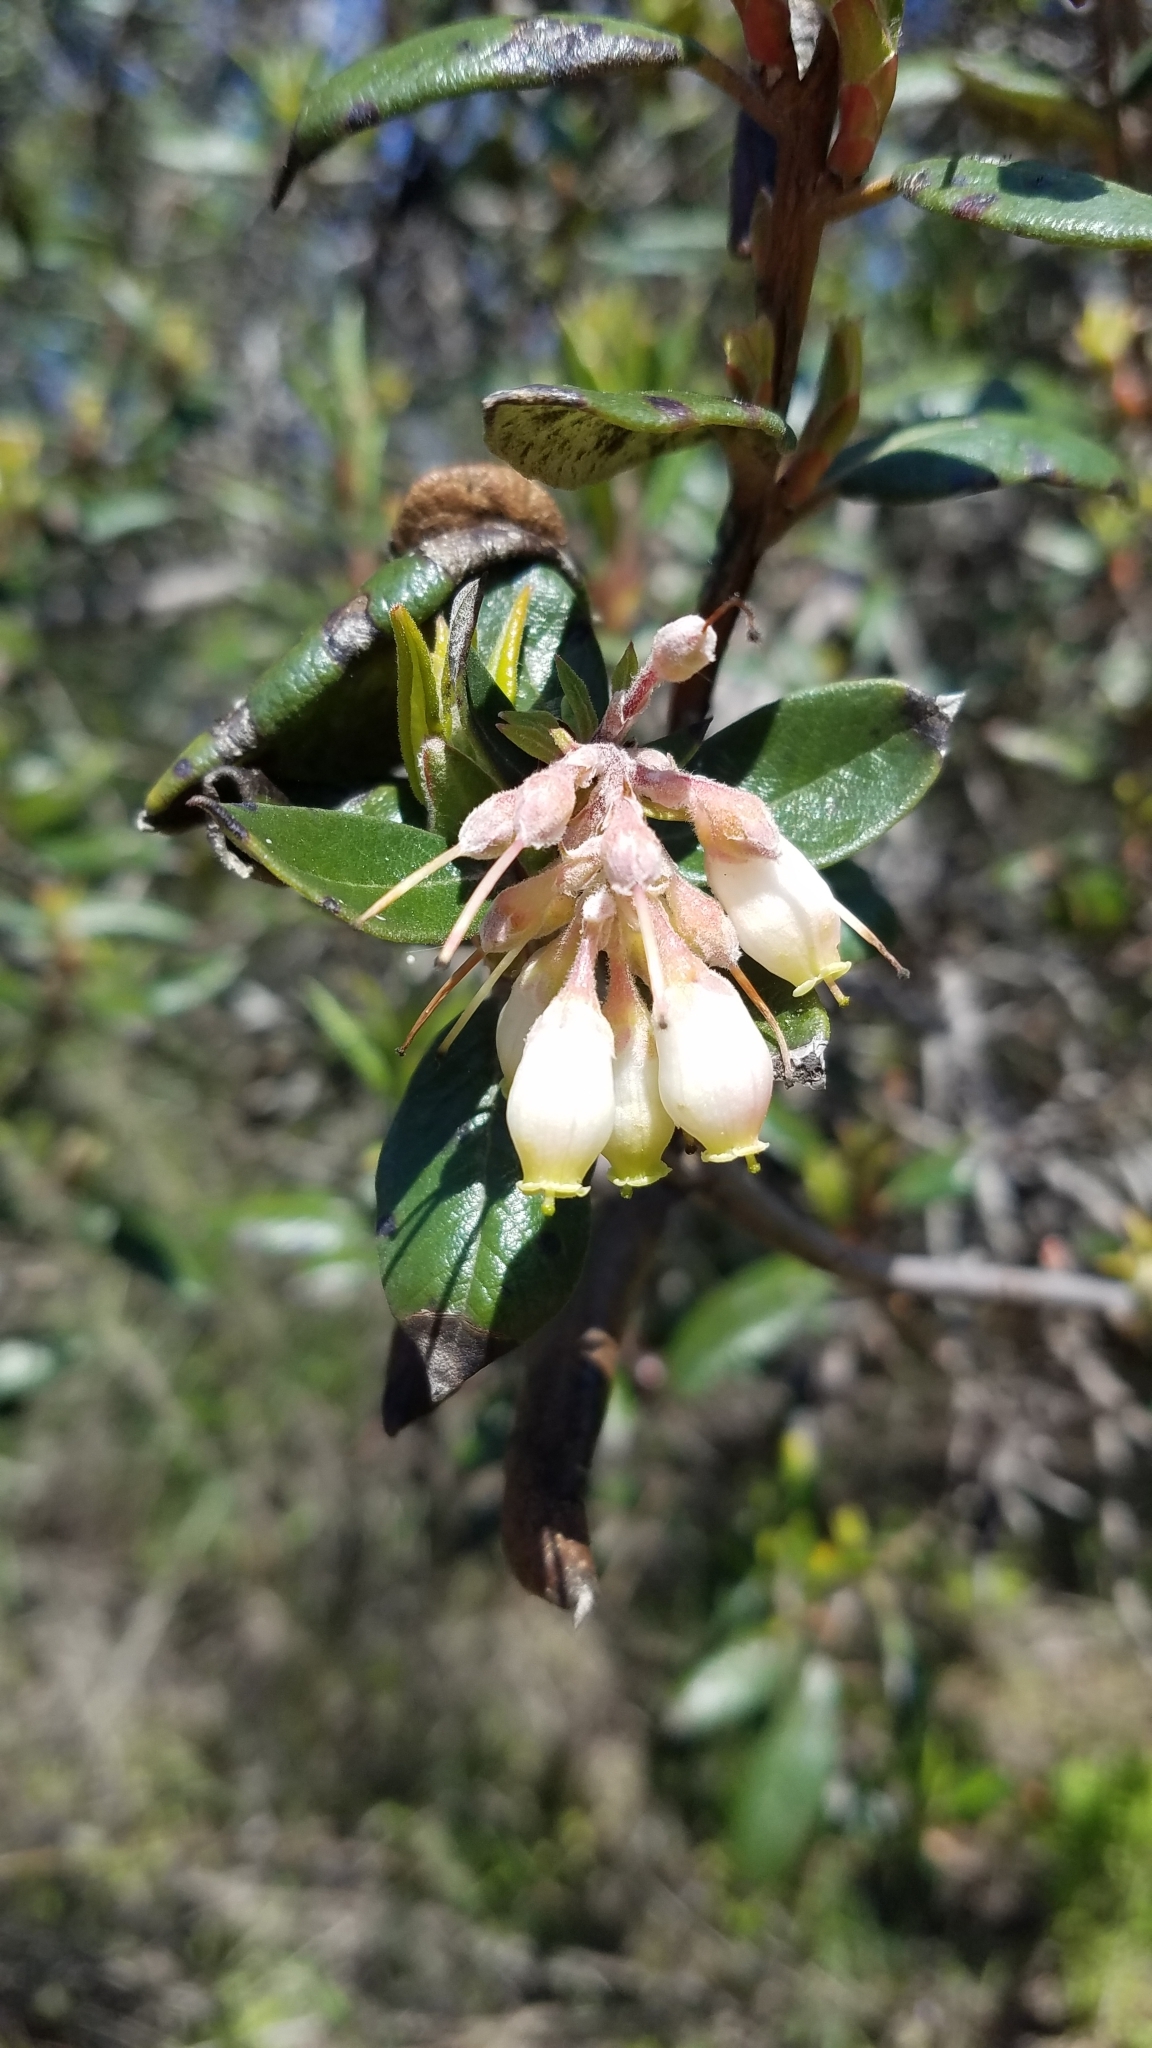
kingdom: Plantae
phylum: Tracheophyta
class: Magnoliopsida
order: Ericales
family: Ericaceae
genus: Arctostaphylos
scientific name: Arctostaphylos bicolor
